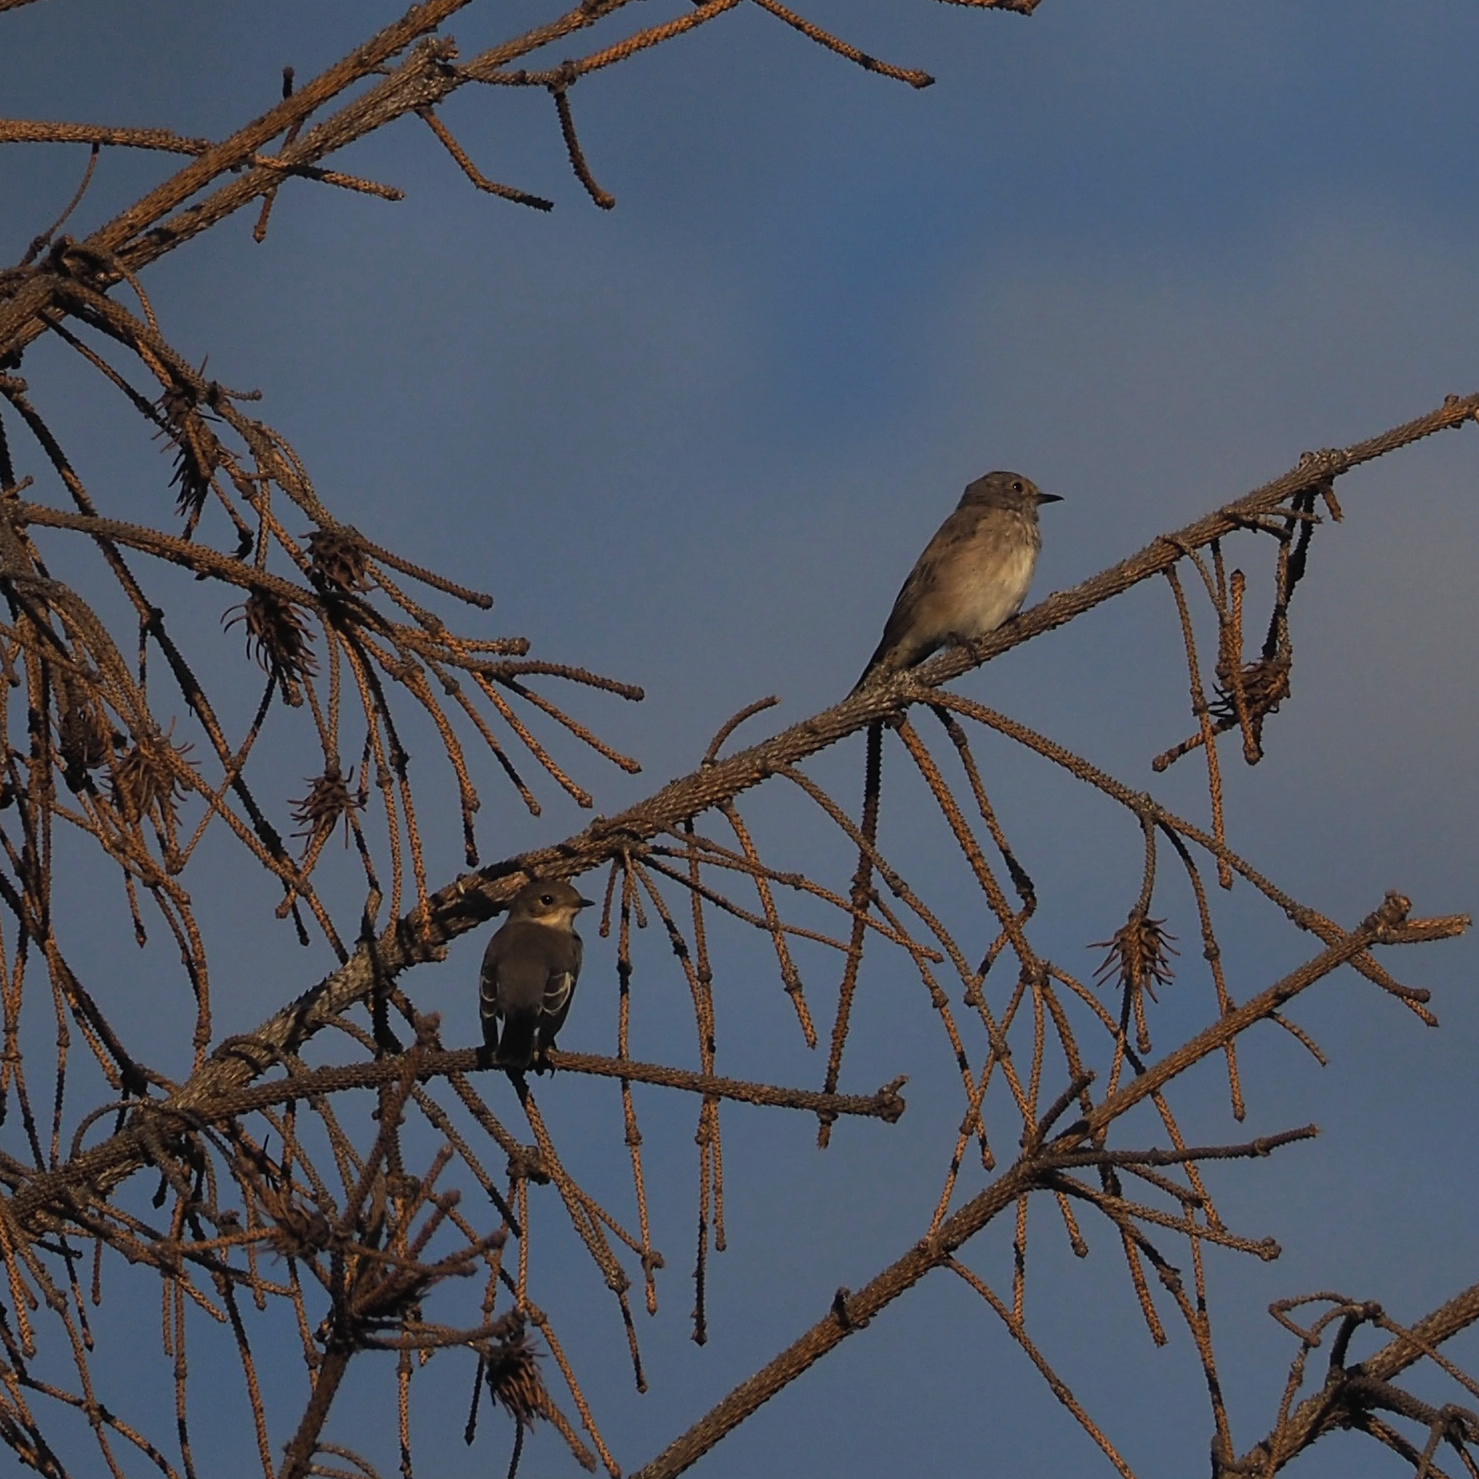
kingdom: Animalia
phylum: Chordata
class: Aves
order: Passeriformes
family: Muscicapidae
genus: Ficedula
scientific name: Ficedula hypoleuca
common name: European pied flycatcher
